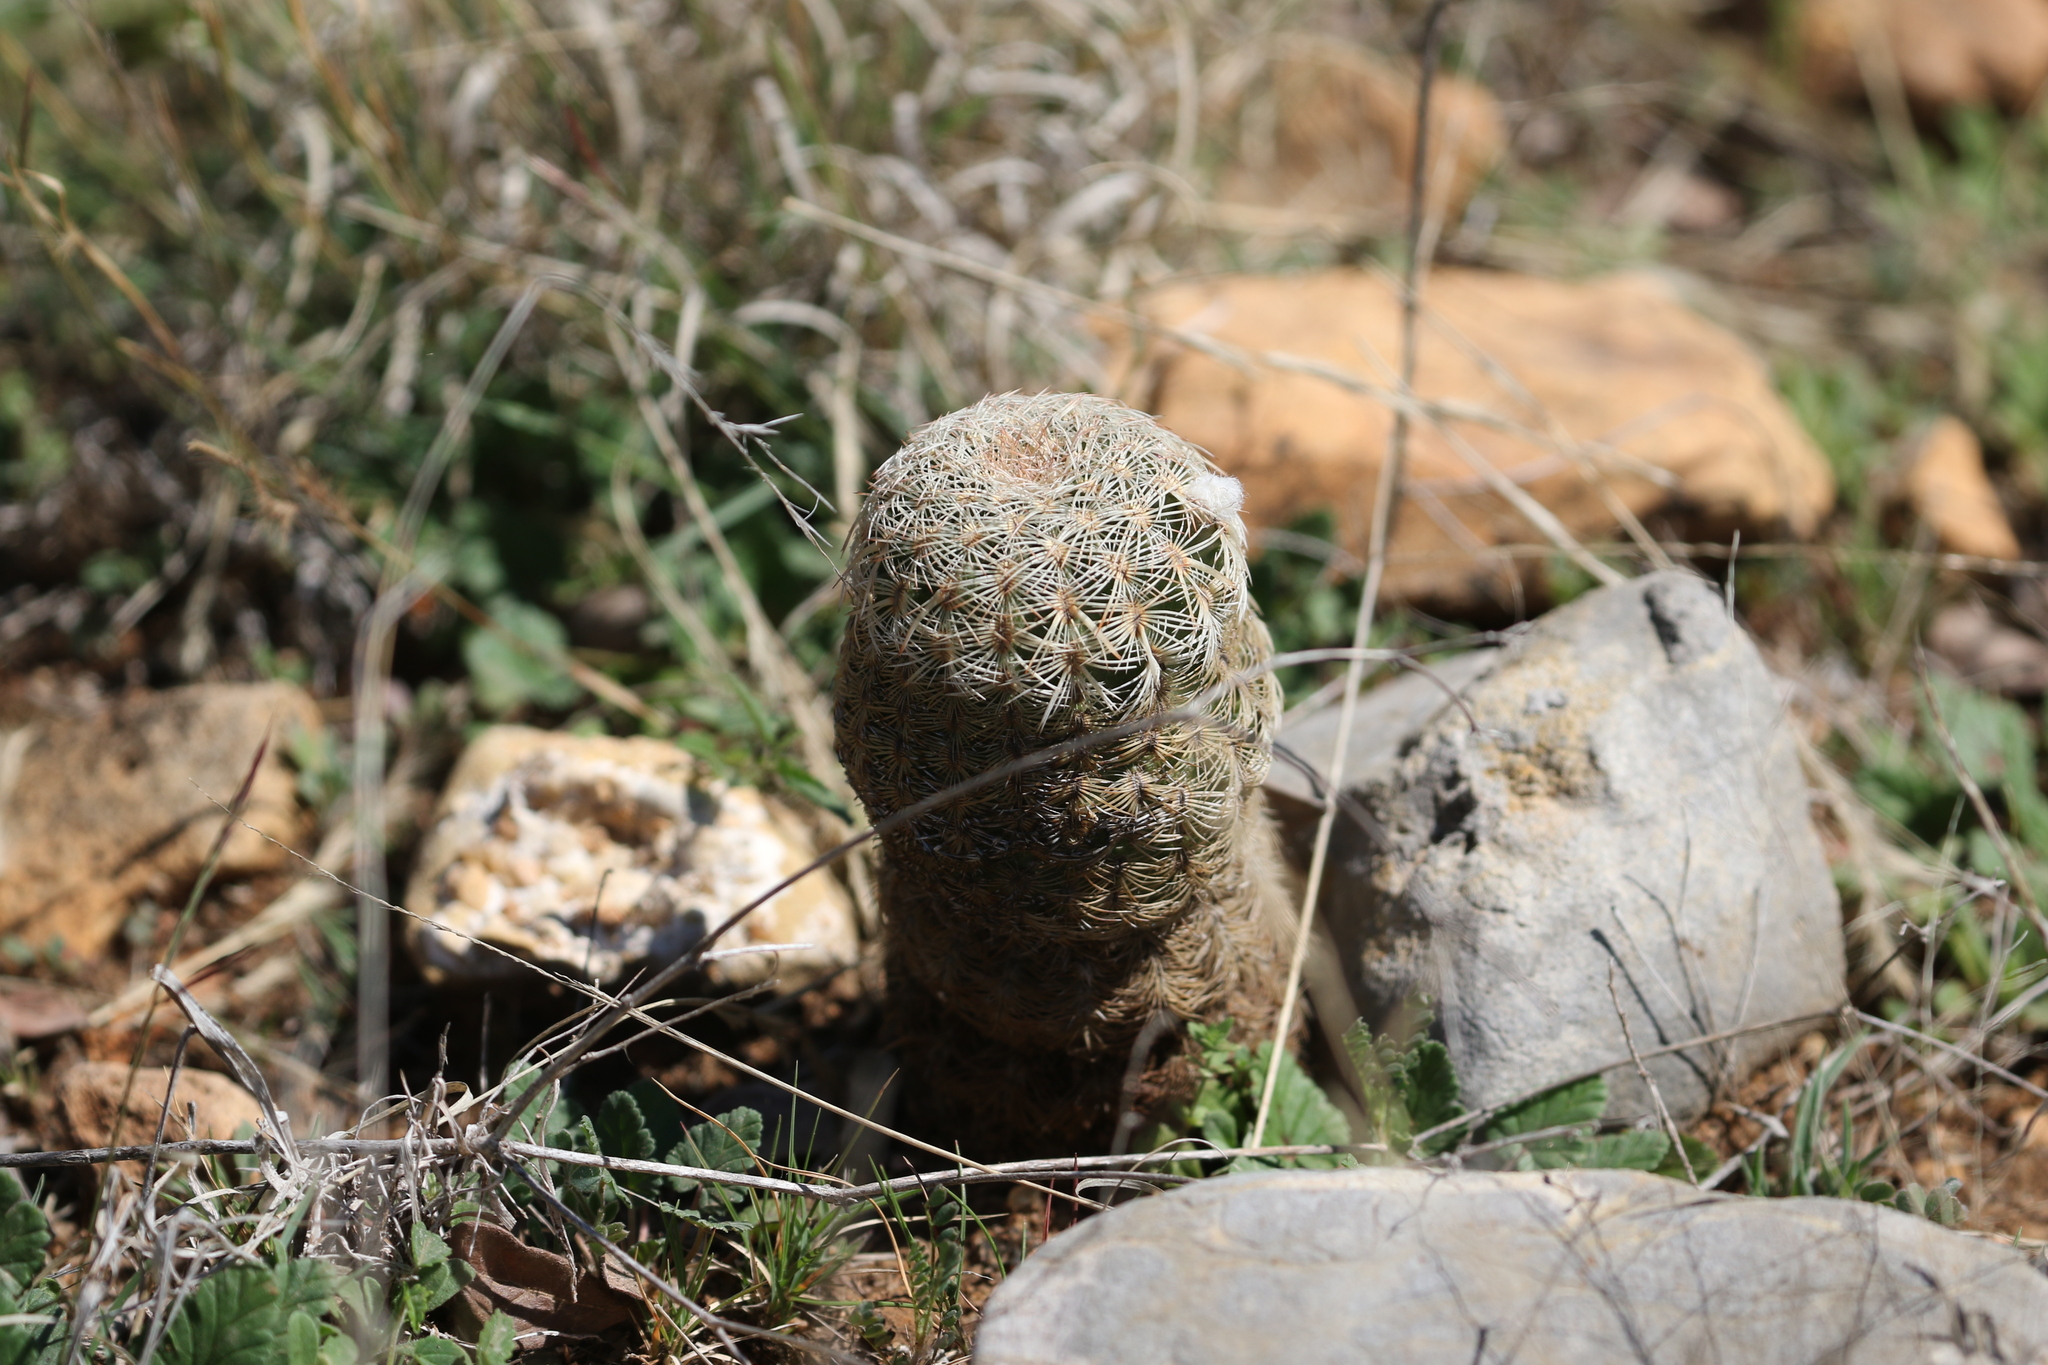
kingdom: Plantae
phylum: Tracheophyta
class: Magnoliopsida
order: Caryophyllales
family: Cactaceae
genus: Echinocereus
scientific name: Echinocereus reichenbachii
